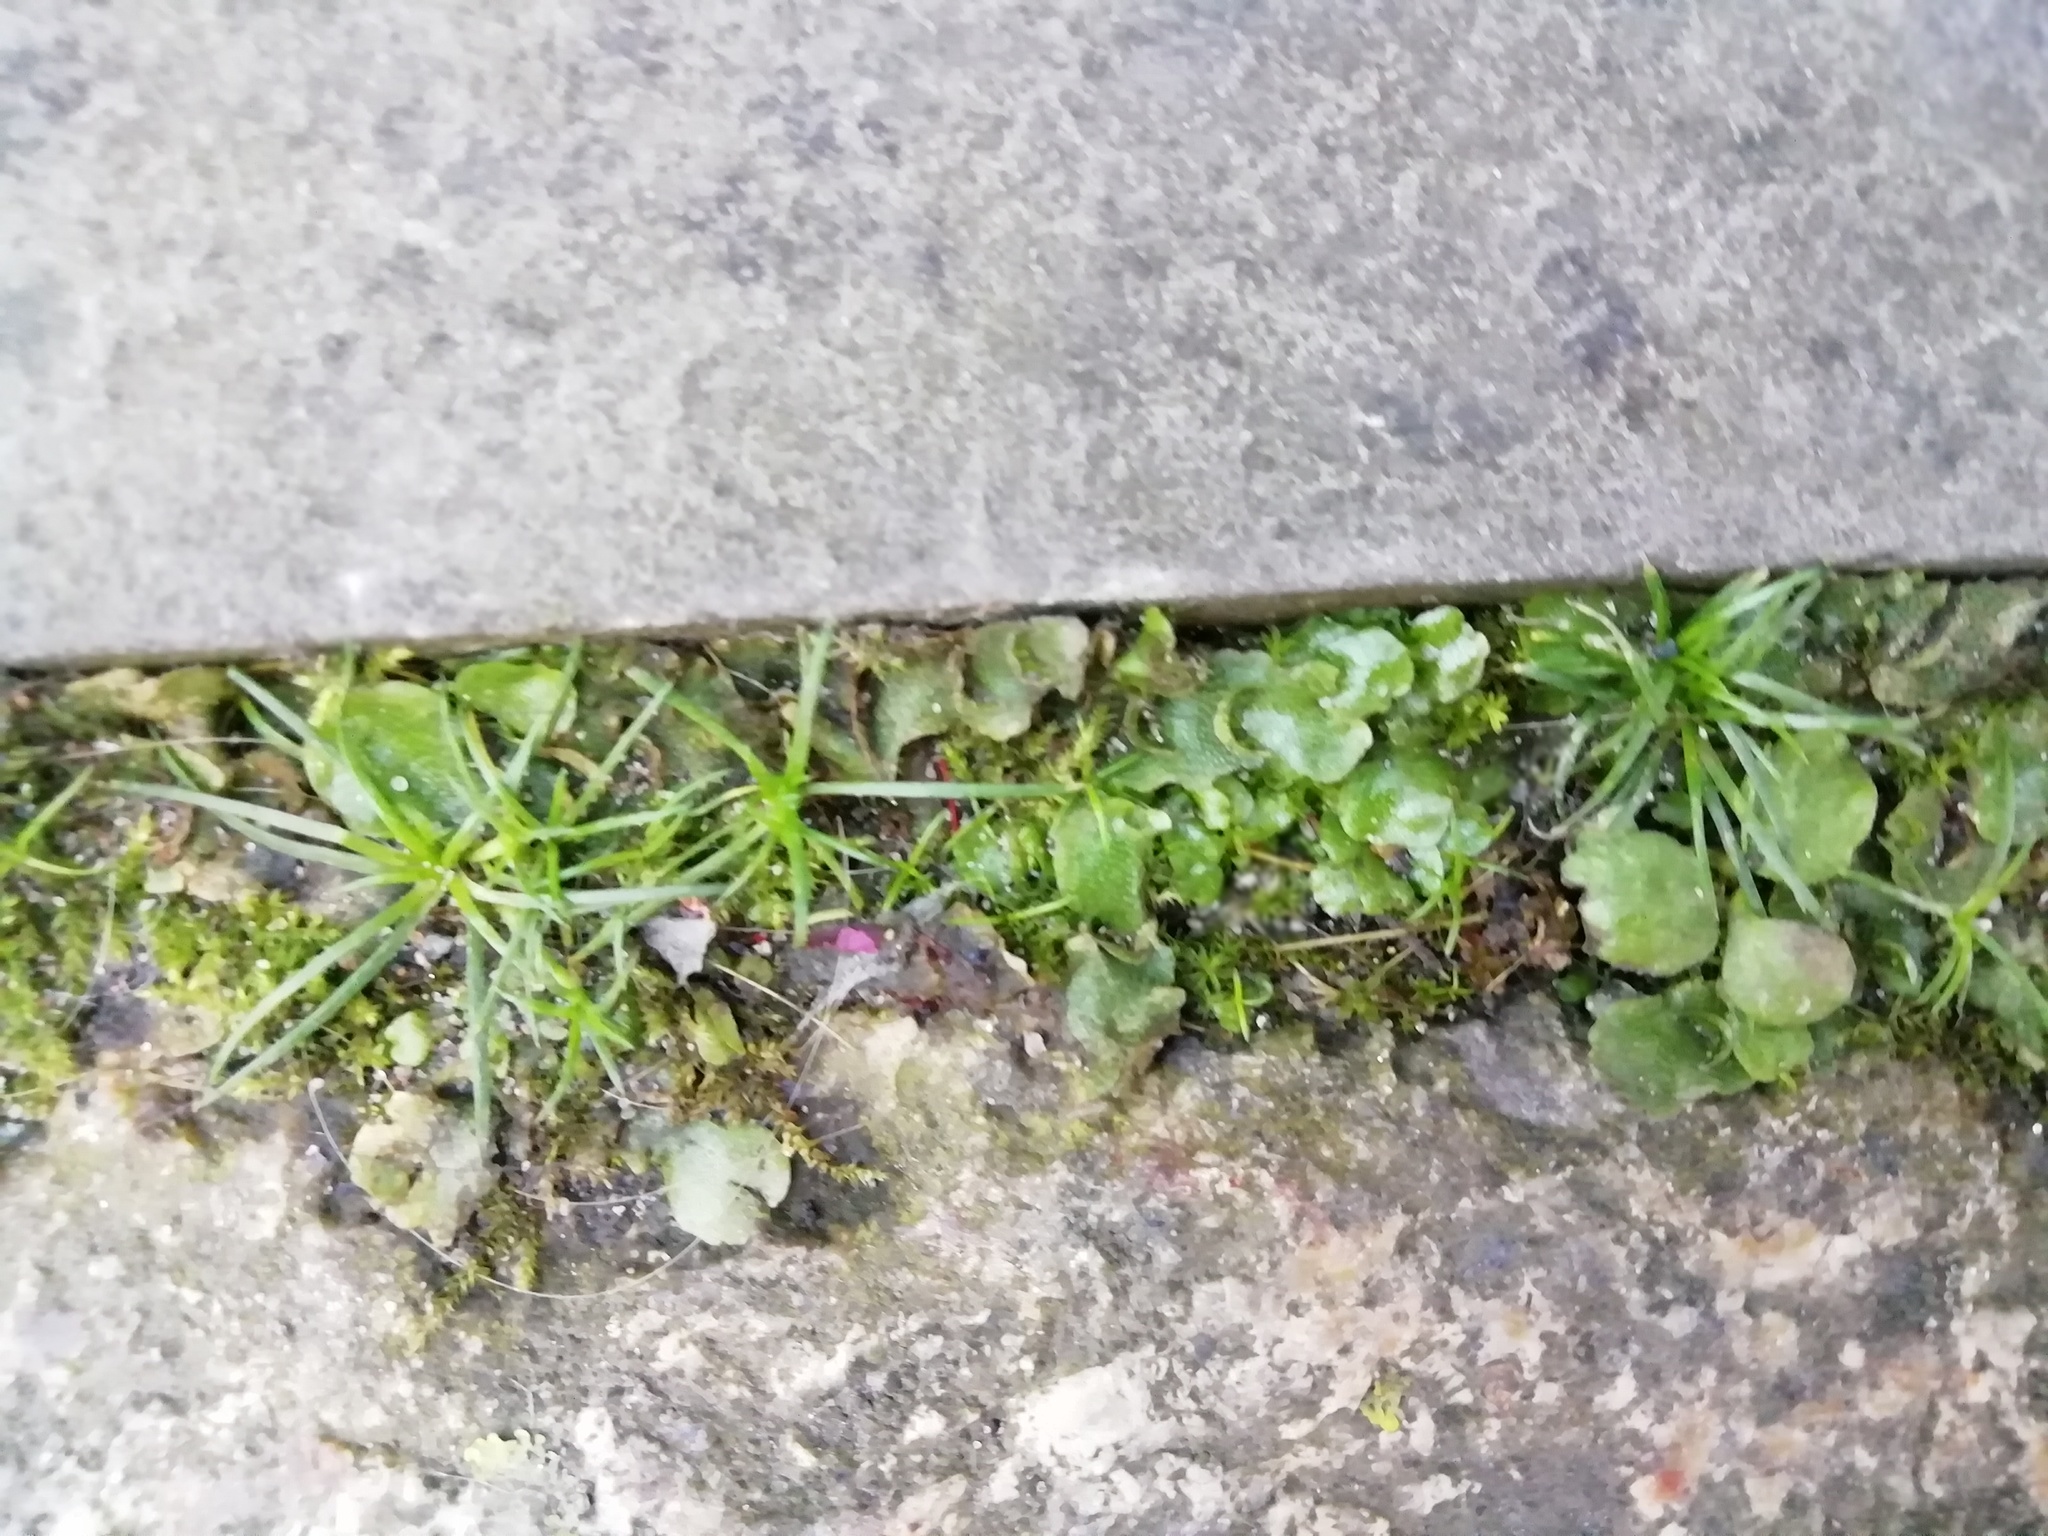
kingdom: Plantae
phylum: Marchantiophyta
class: Marchantiopsida
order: Lunulariales
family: Lunulariaceae
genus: Lunularia
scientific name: Lunularia cruciata
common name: Crescent-cup liverwort
